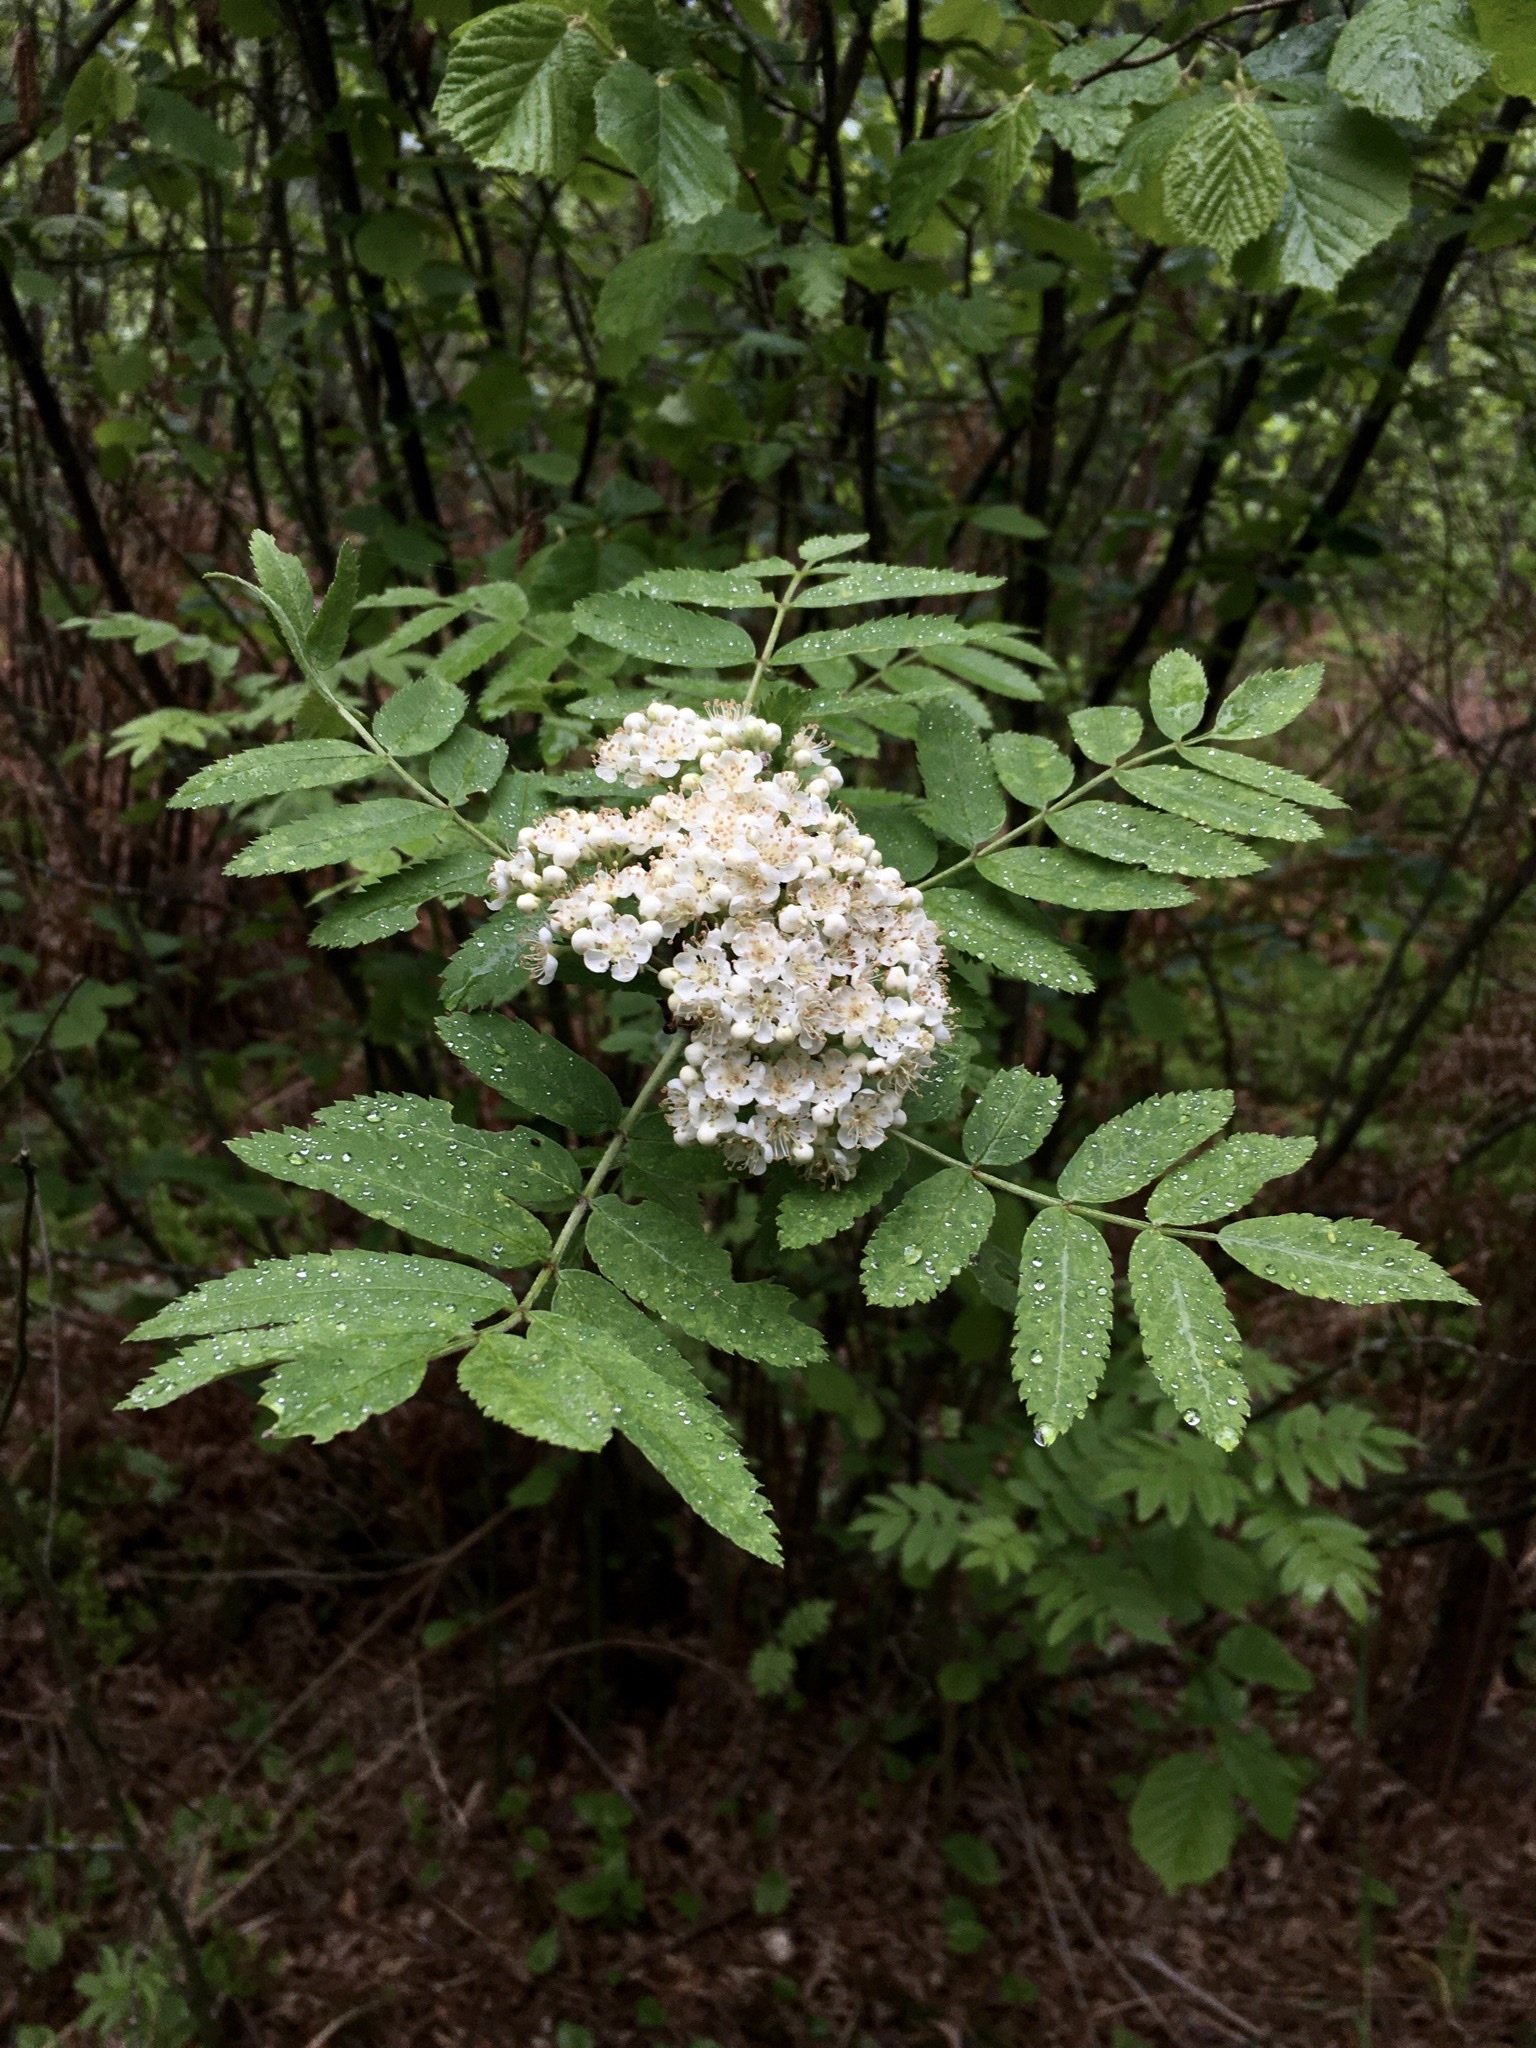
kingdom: Plantae
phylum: Tracheophyta
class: Magnoliopsida
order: Rosales
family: Rosaceae
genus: Sorbus
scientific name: Sorbus aucuparia
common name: Rowan
